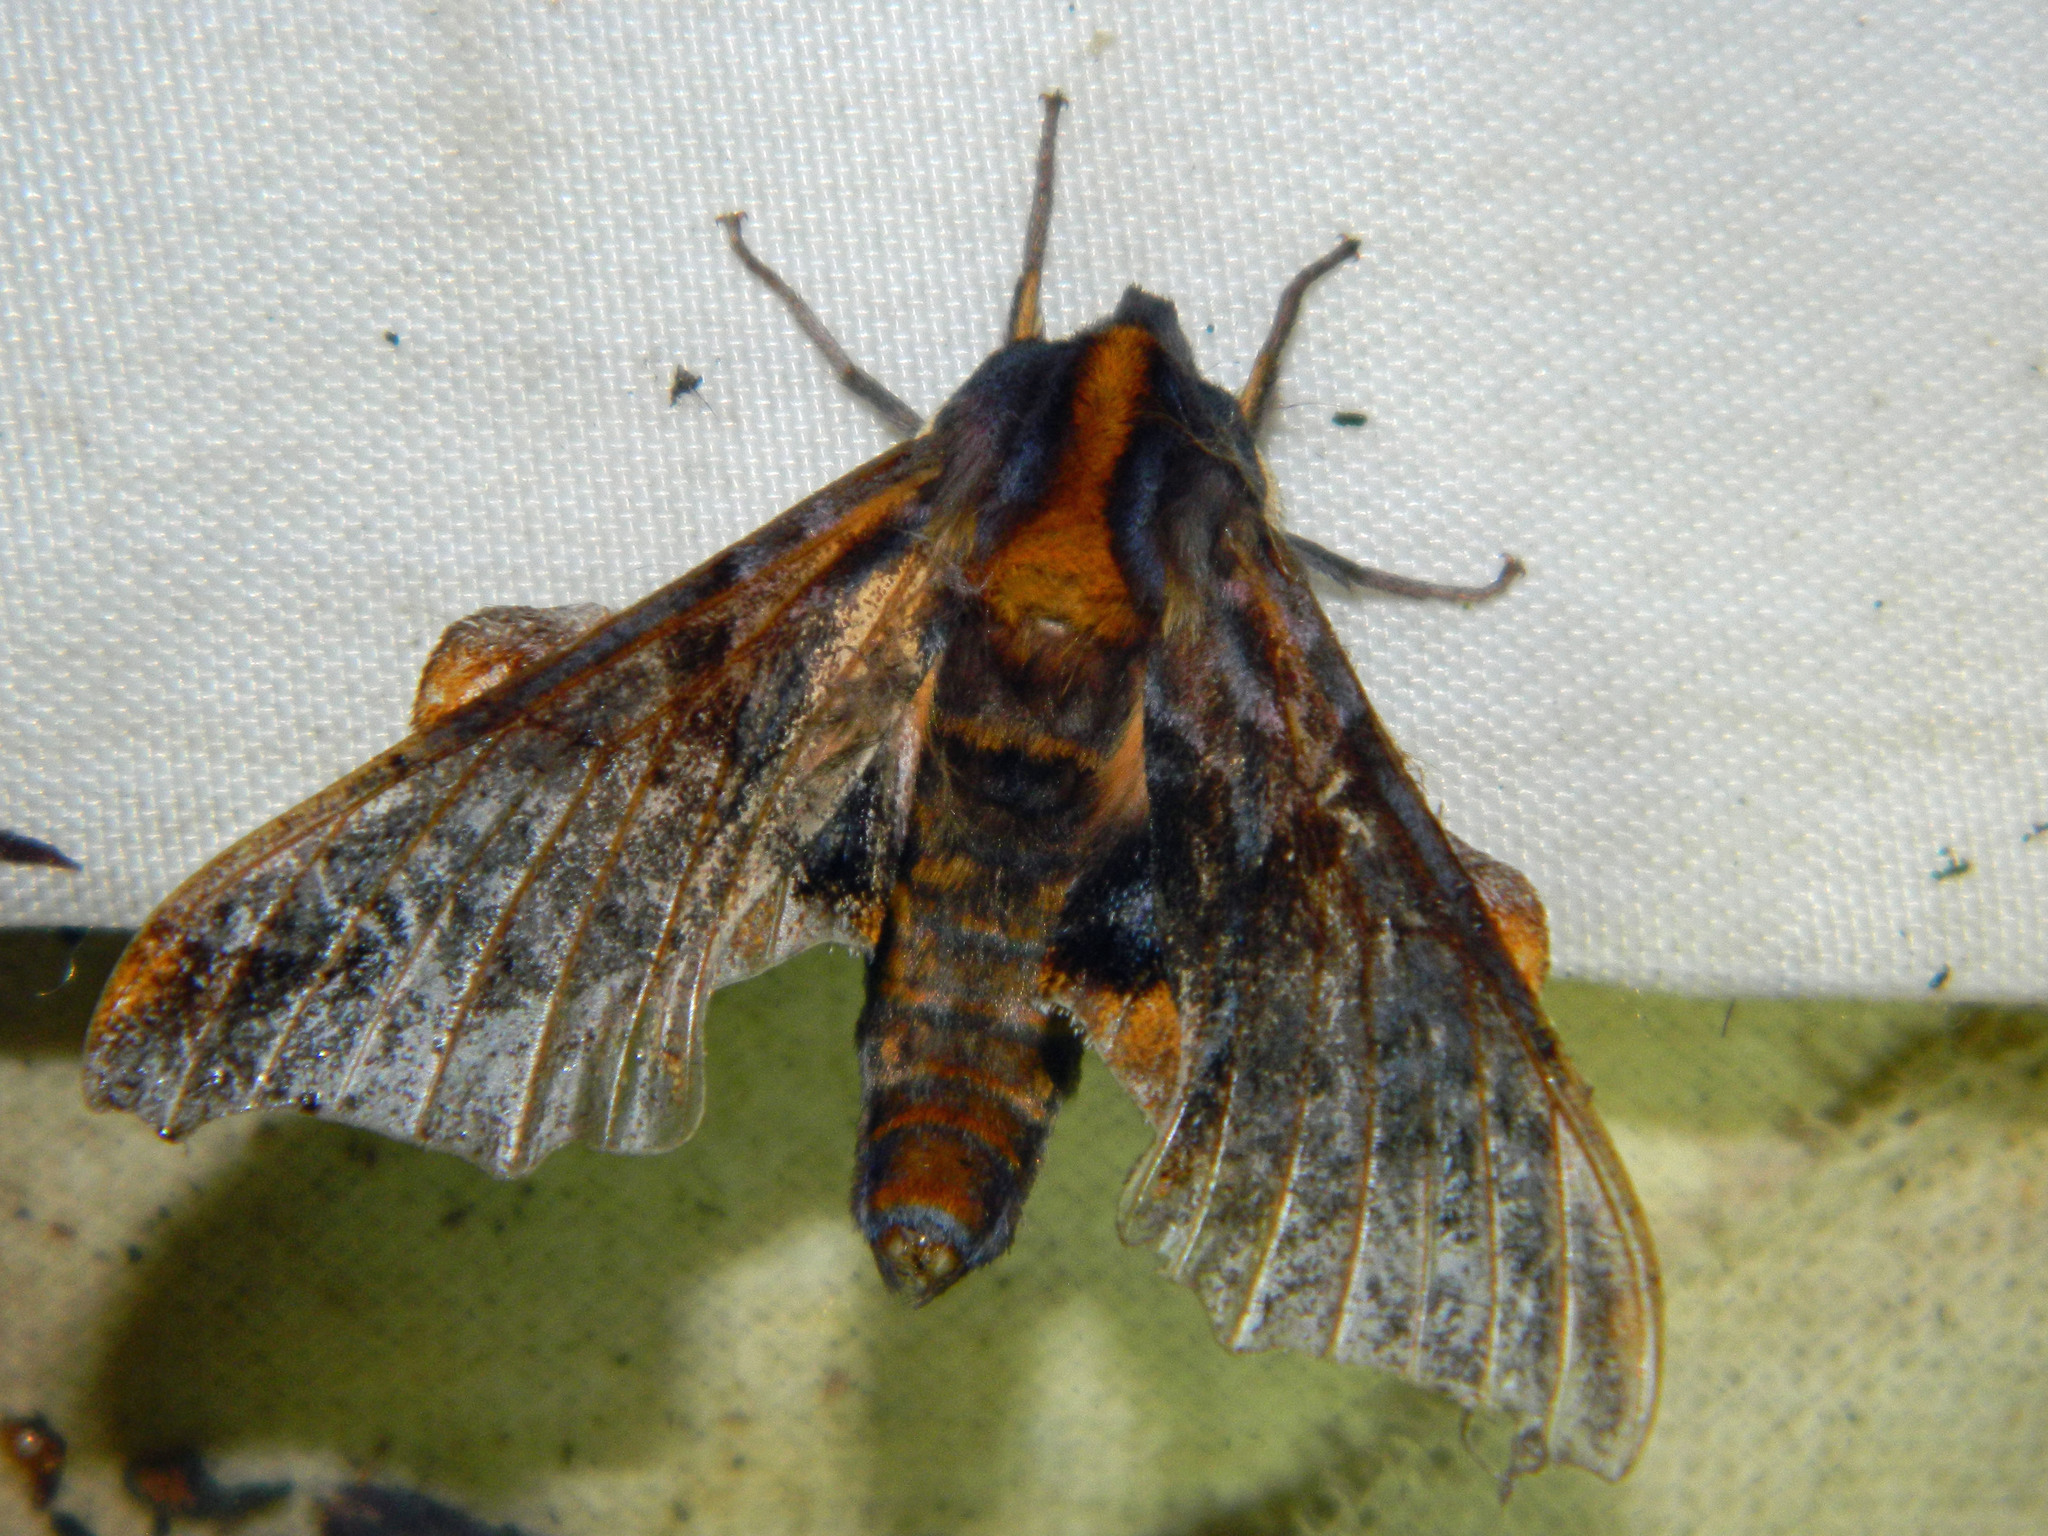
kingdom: Animalia
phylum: Arthropoda
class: Insecta
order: Lepidoptera
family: Sphingidae
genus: Paonias
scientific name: Paonias myops
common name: Small-eyed sphinx
